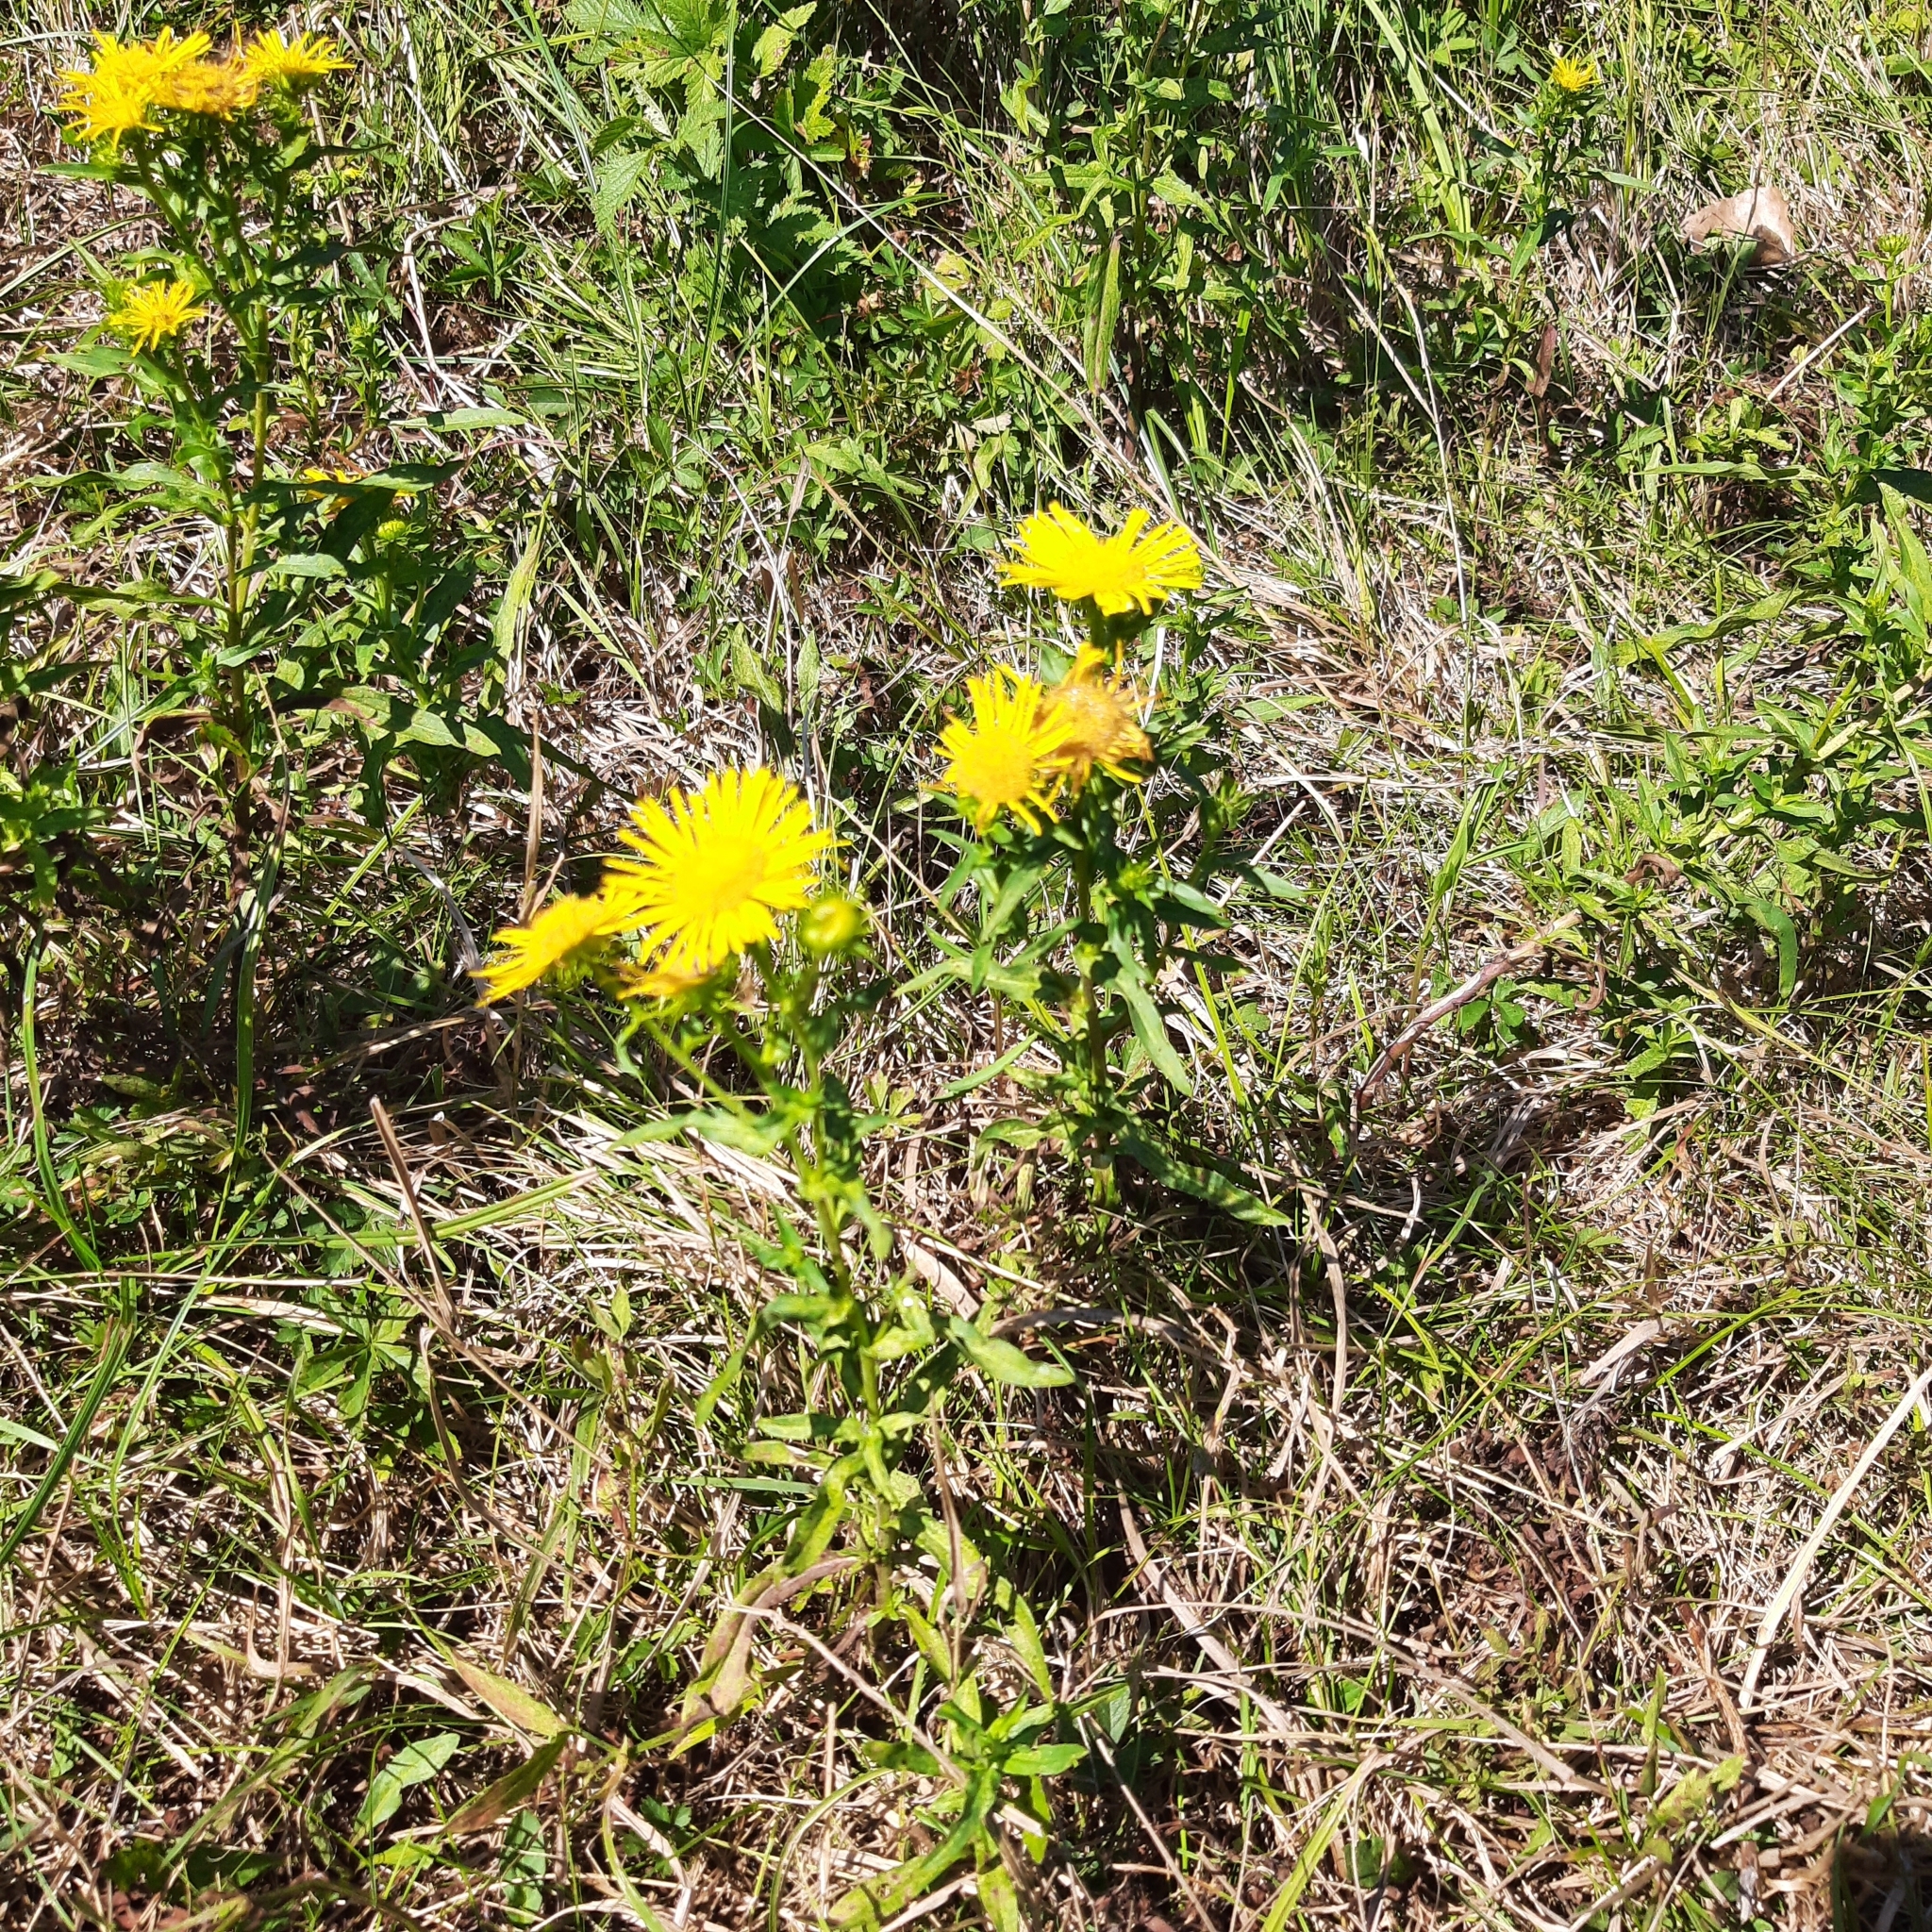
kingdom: Plantae
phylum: Tracheophyta
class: Magnoliopsida
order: Asterales
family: Asteraceae
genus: Pentanema
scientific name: Pentanema britannicum
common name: British elecampane
